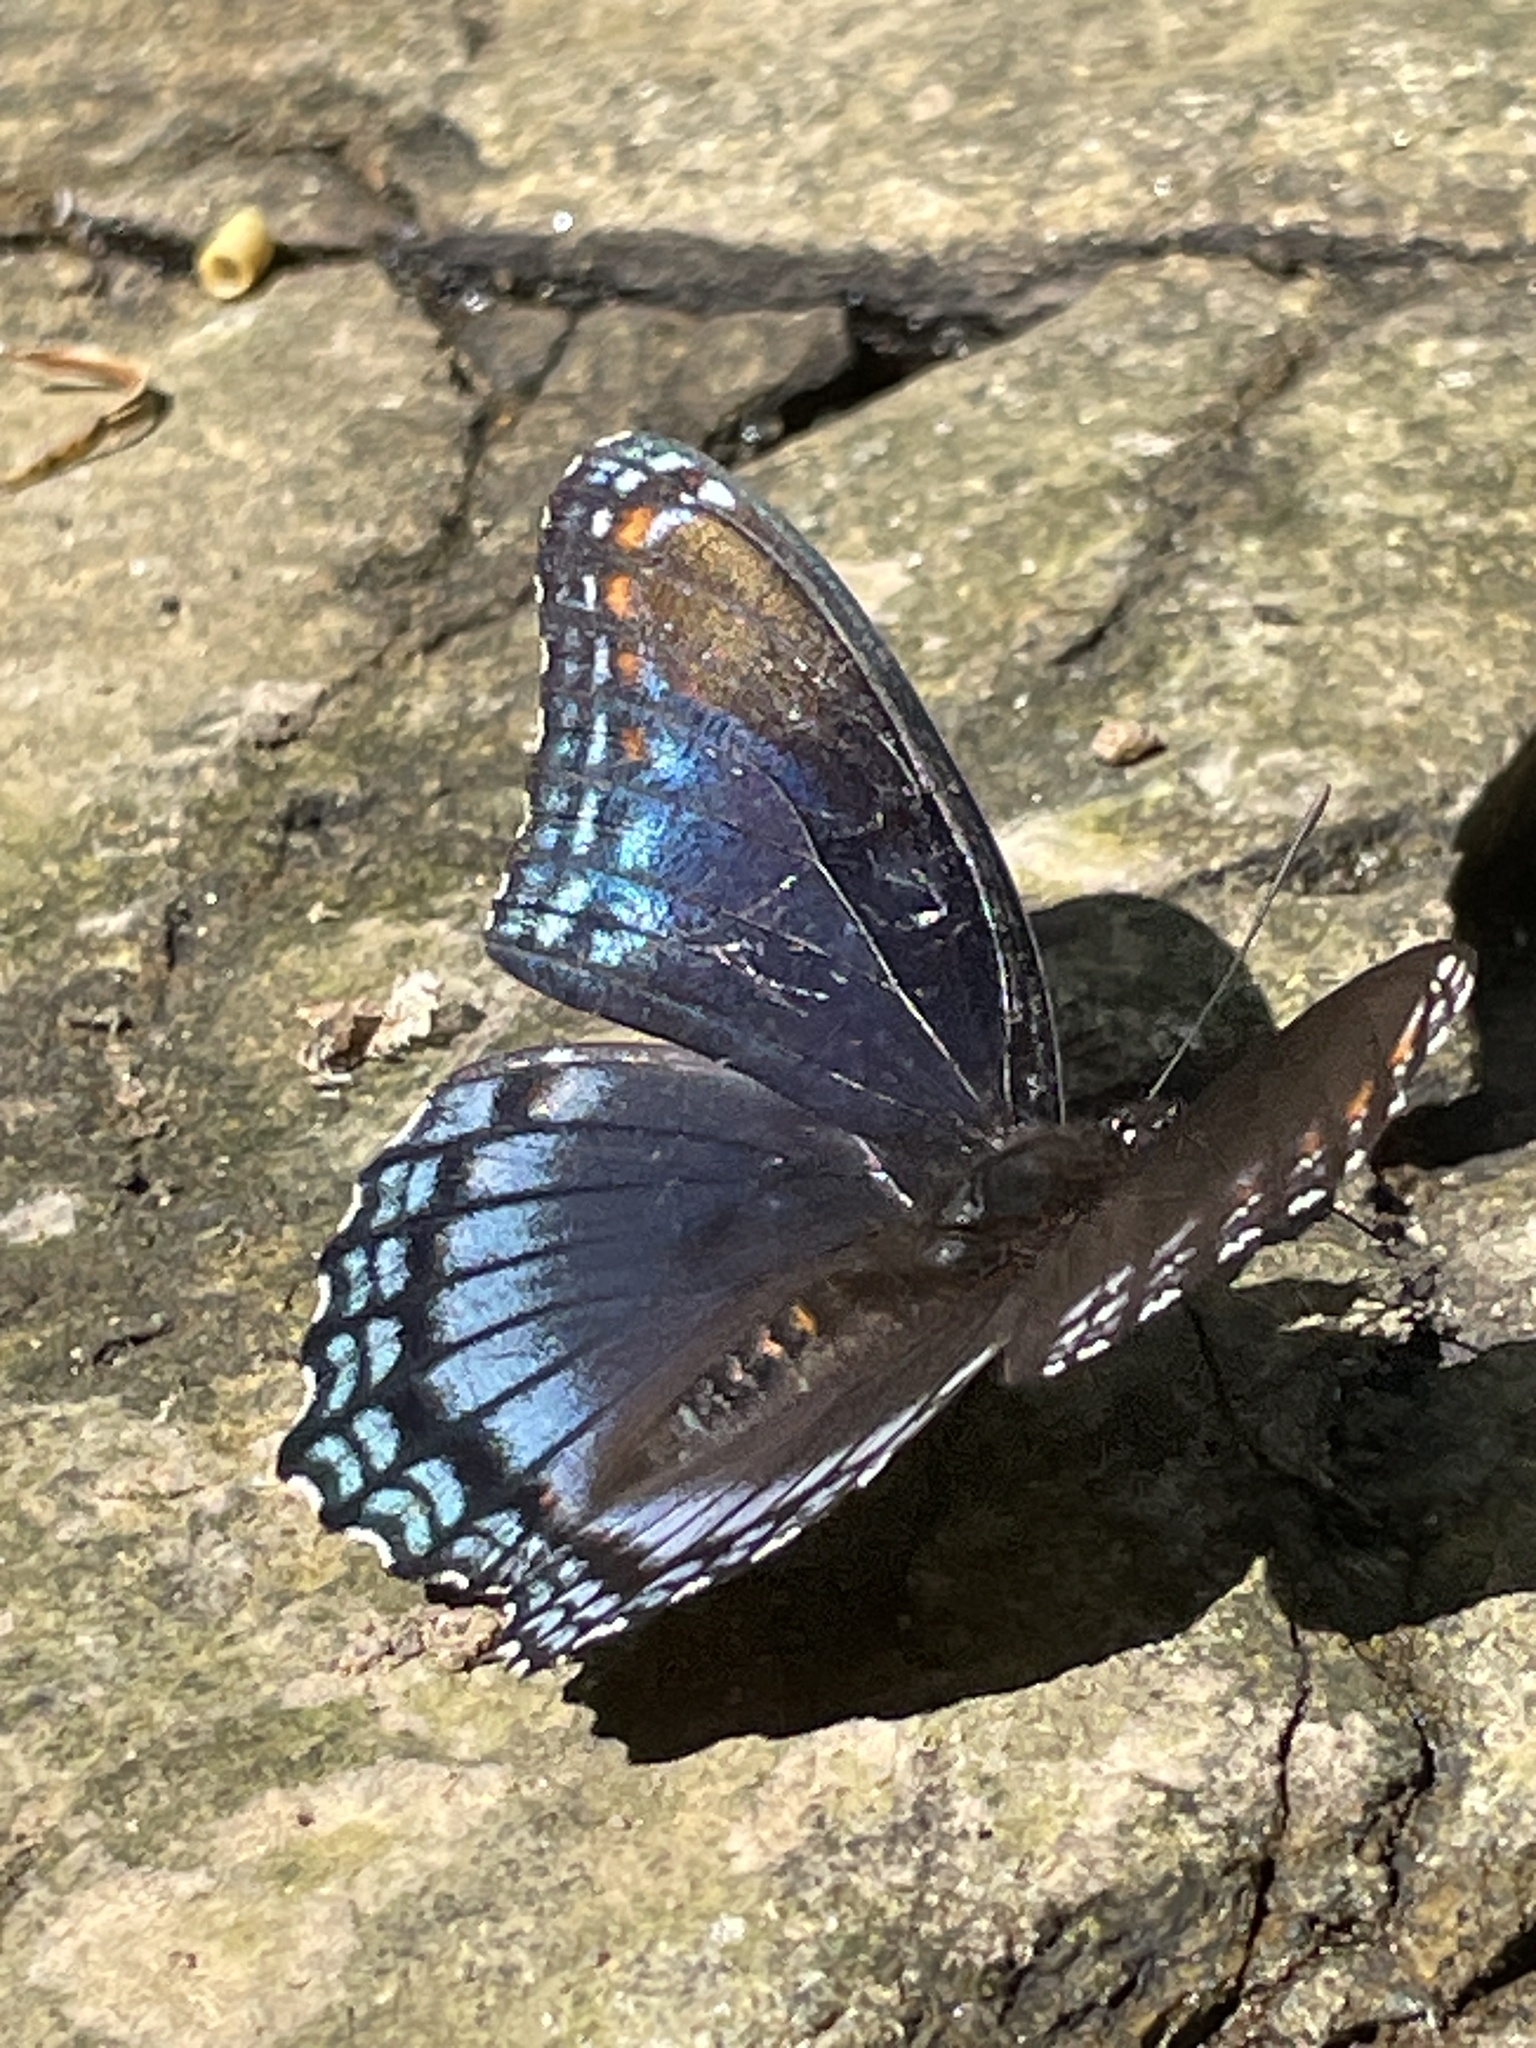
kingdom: Animalia
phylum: Arthropoda
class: Insecta
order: Lepidoptera
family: Nymphalidae
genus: Limenitis
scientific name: Limenitis arthemis
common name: Red-spotted admiral
